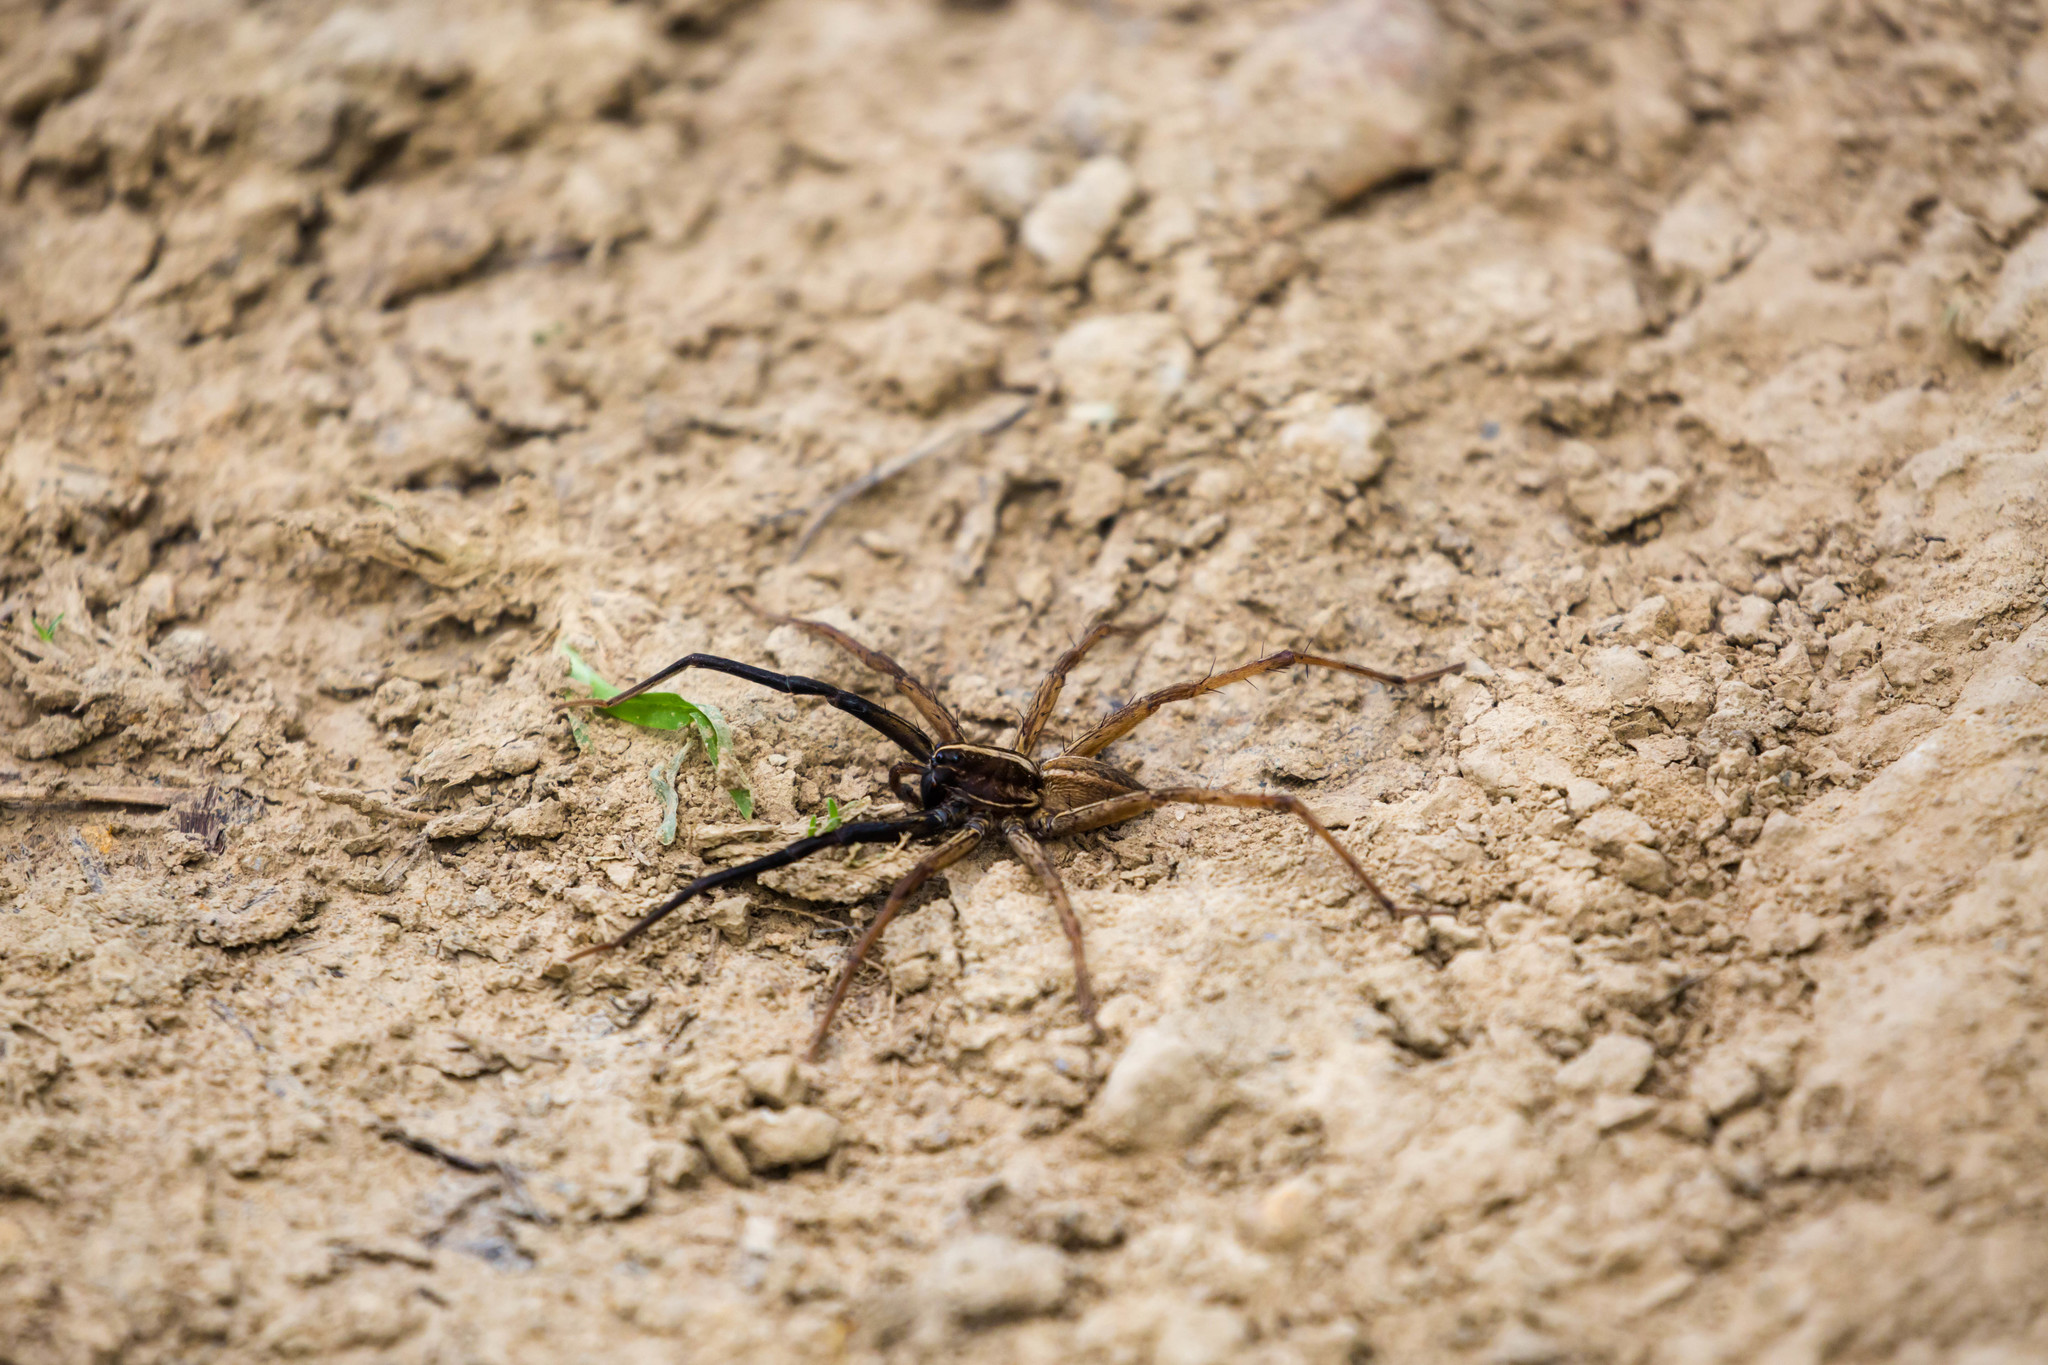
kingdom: Animalia
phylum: Arthropoda
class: Arachnida
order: Araneae
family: Lycosidae
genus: Rabidosa
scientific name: Rabidosa rabida
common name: Rabid wolf spider
